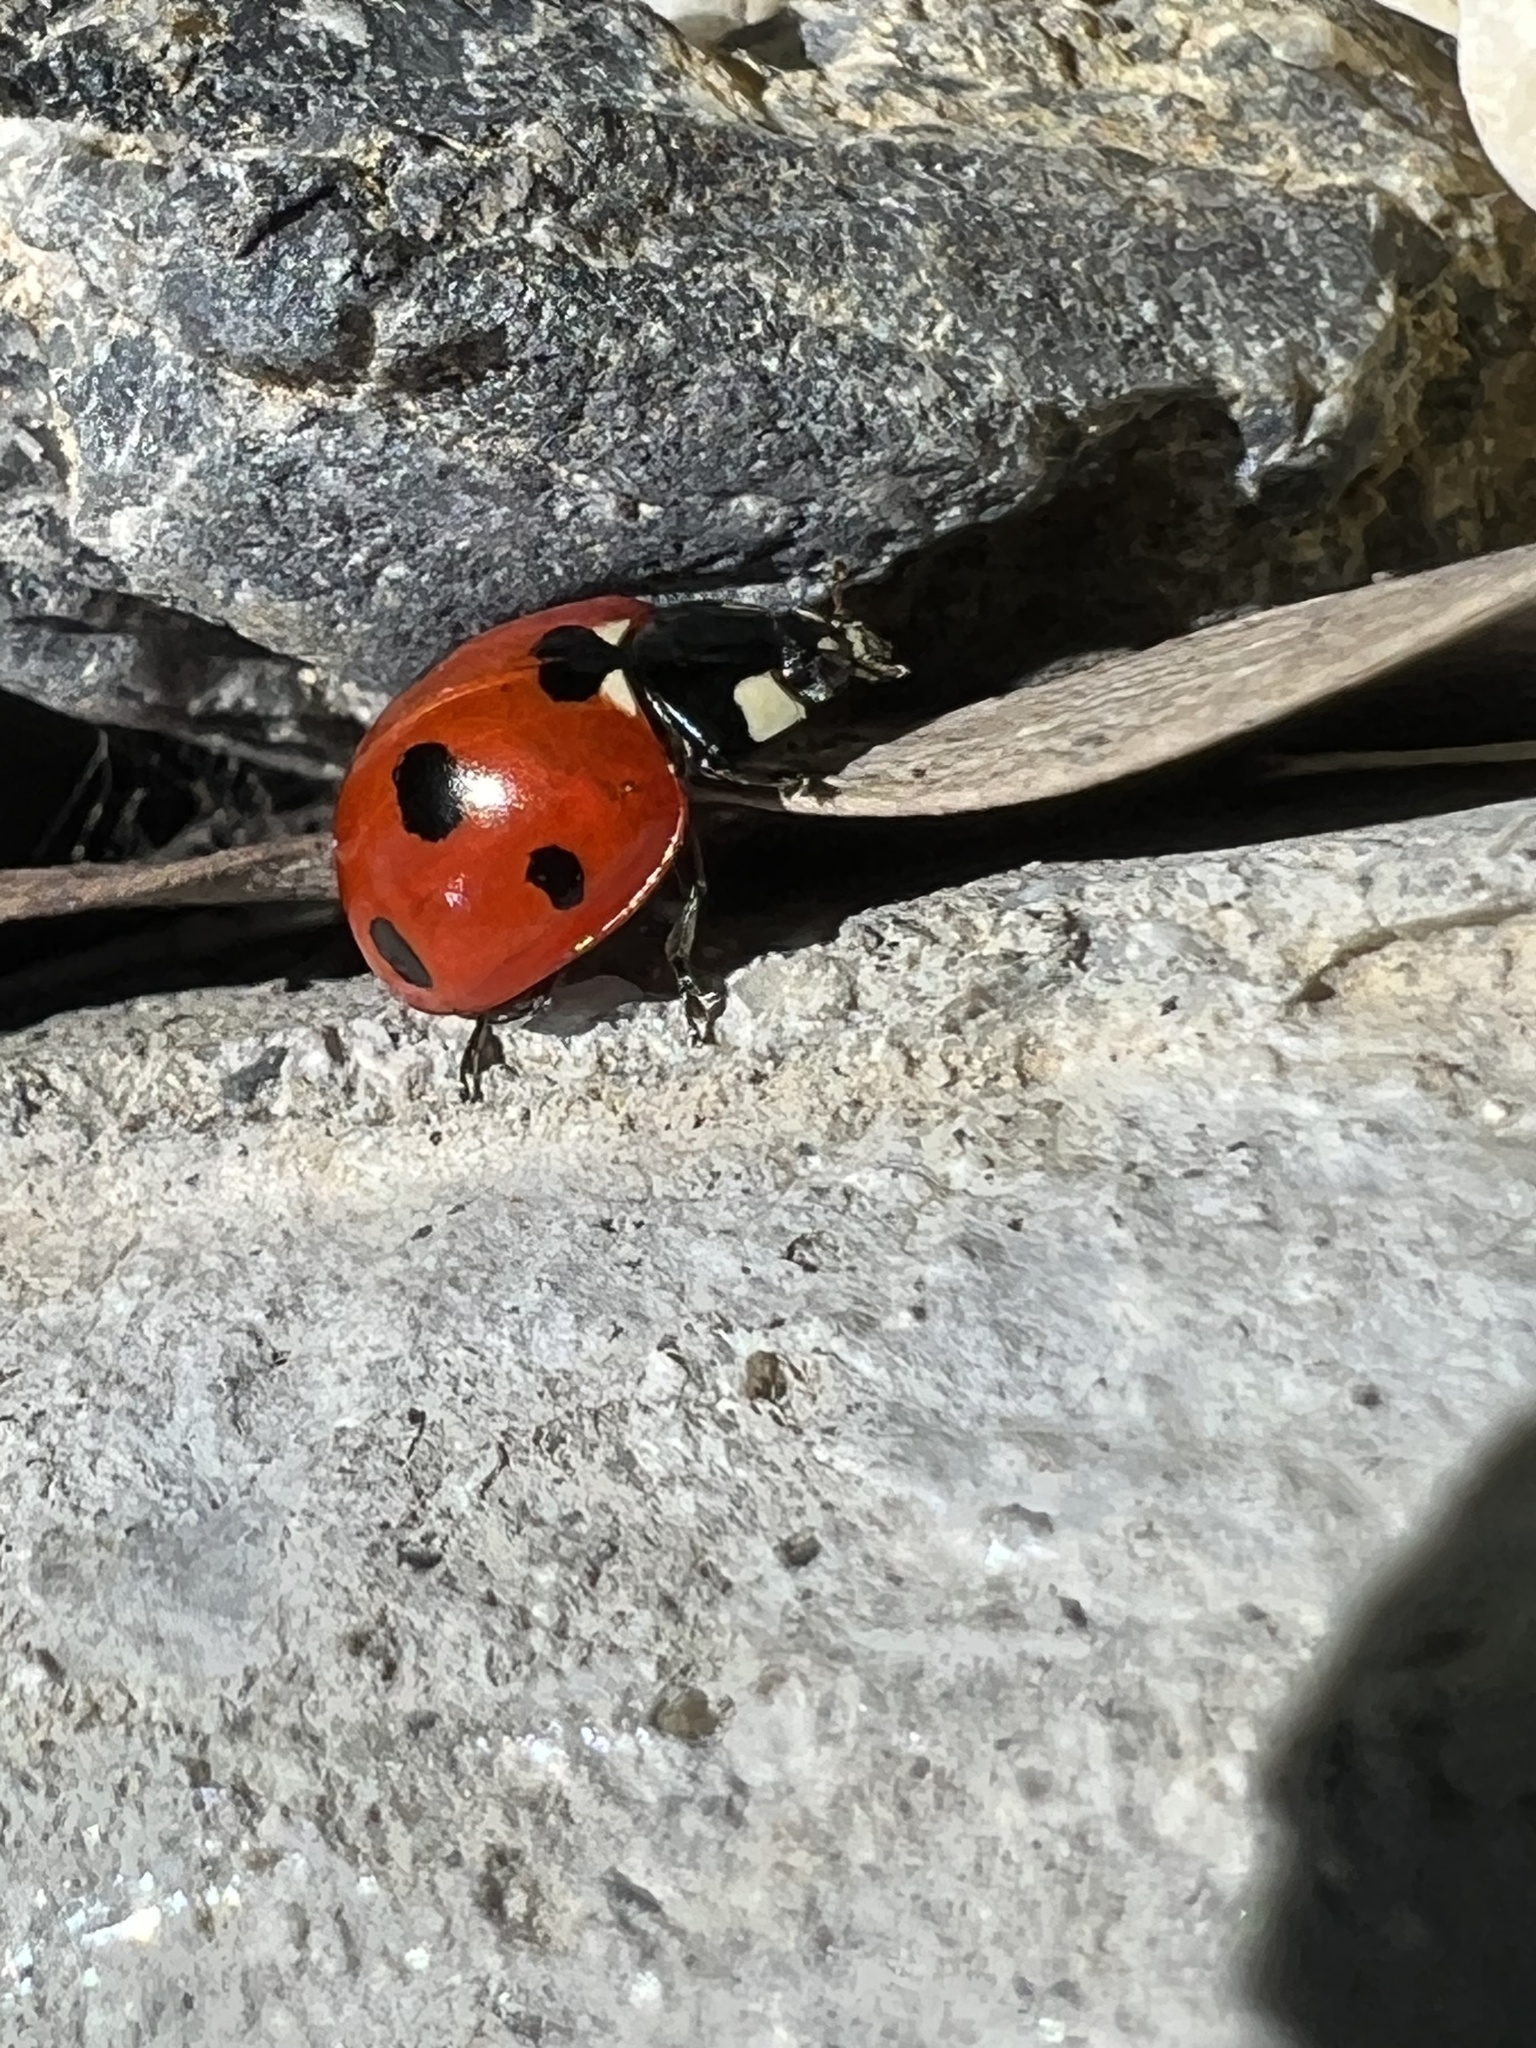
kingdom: Animalia
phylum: Arthropoda
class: Insecta
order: Coleoptera
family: Coccinellidae
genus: Coccinella
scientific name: Coccinella septempunctata
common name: Sevenspotted lady beetle
